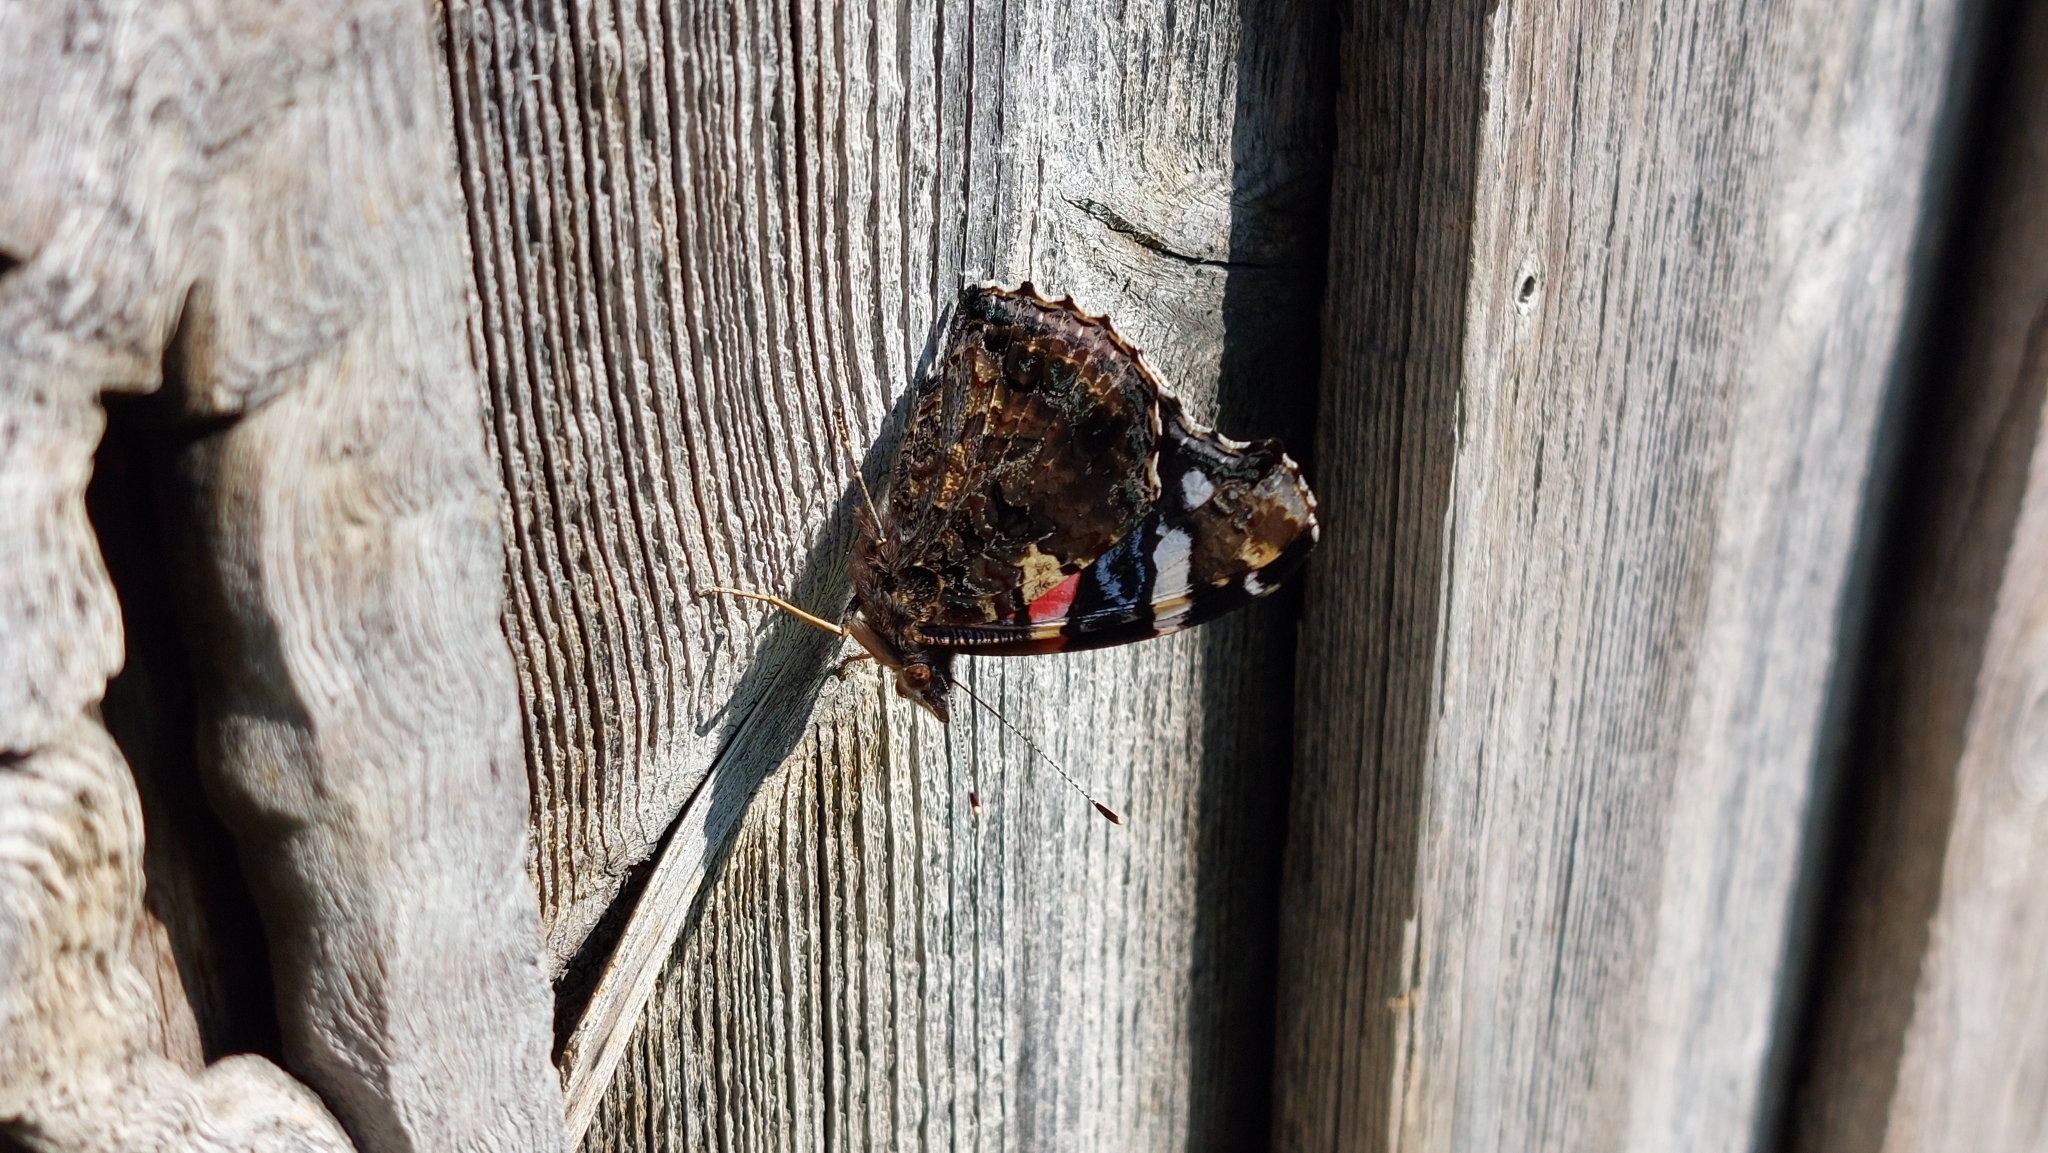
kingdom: Animalia
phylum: Arthropoda
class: Insecta
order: Lepidoptera
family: Nymphalidae
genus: Vanessa
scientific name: Vanessa atalanta
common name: Red admiral
